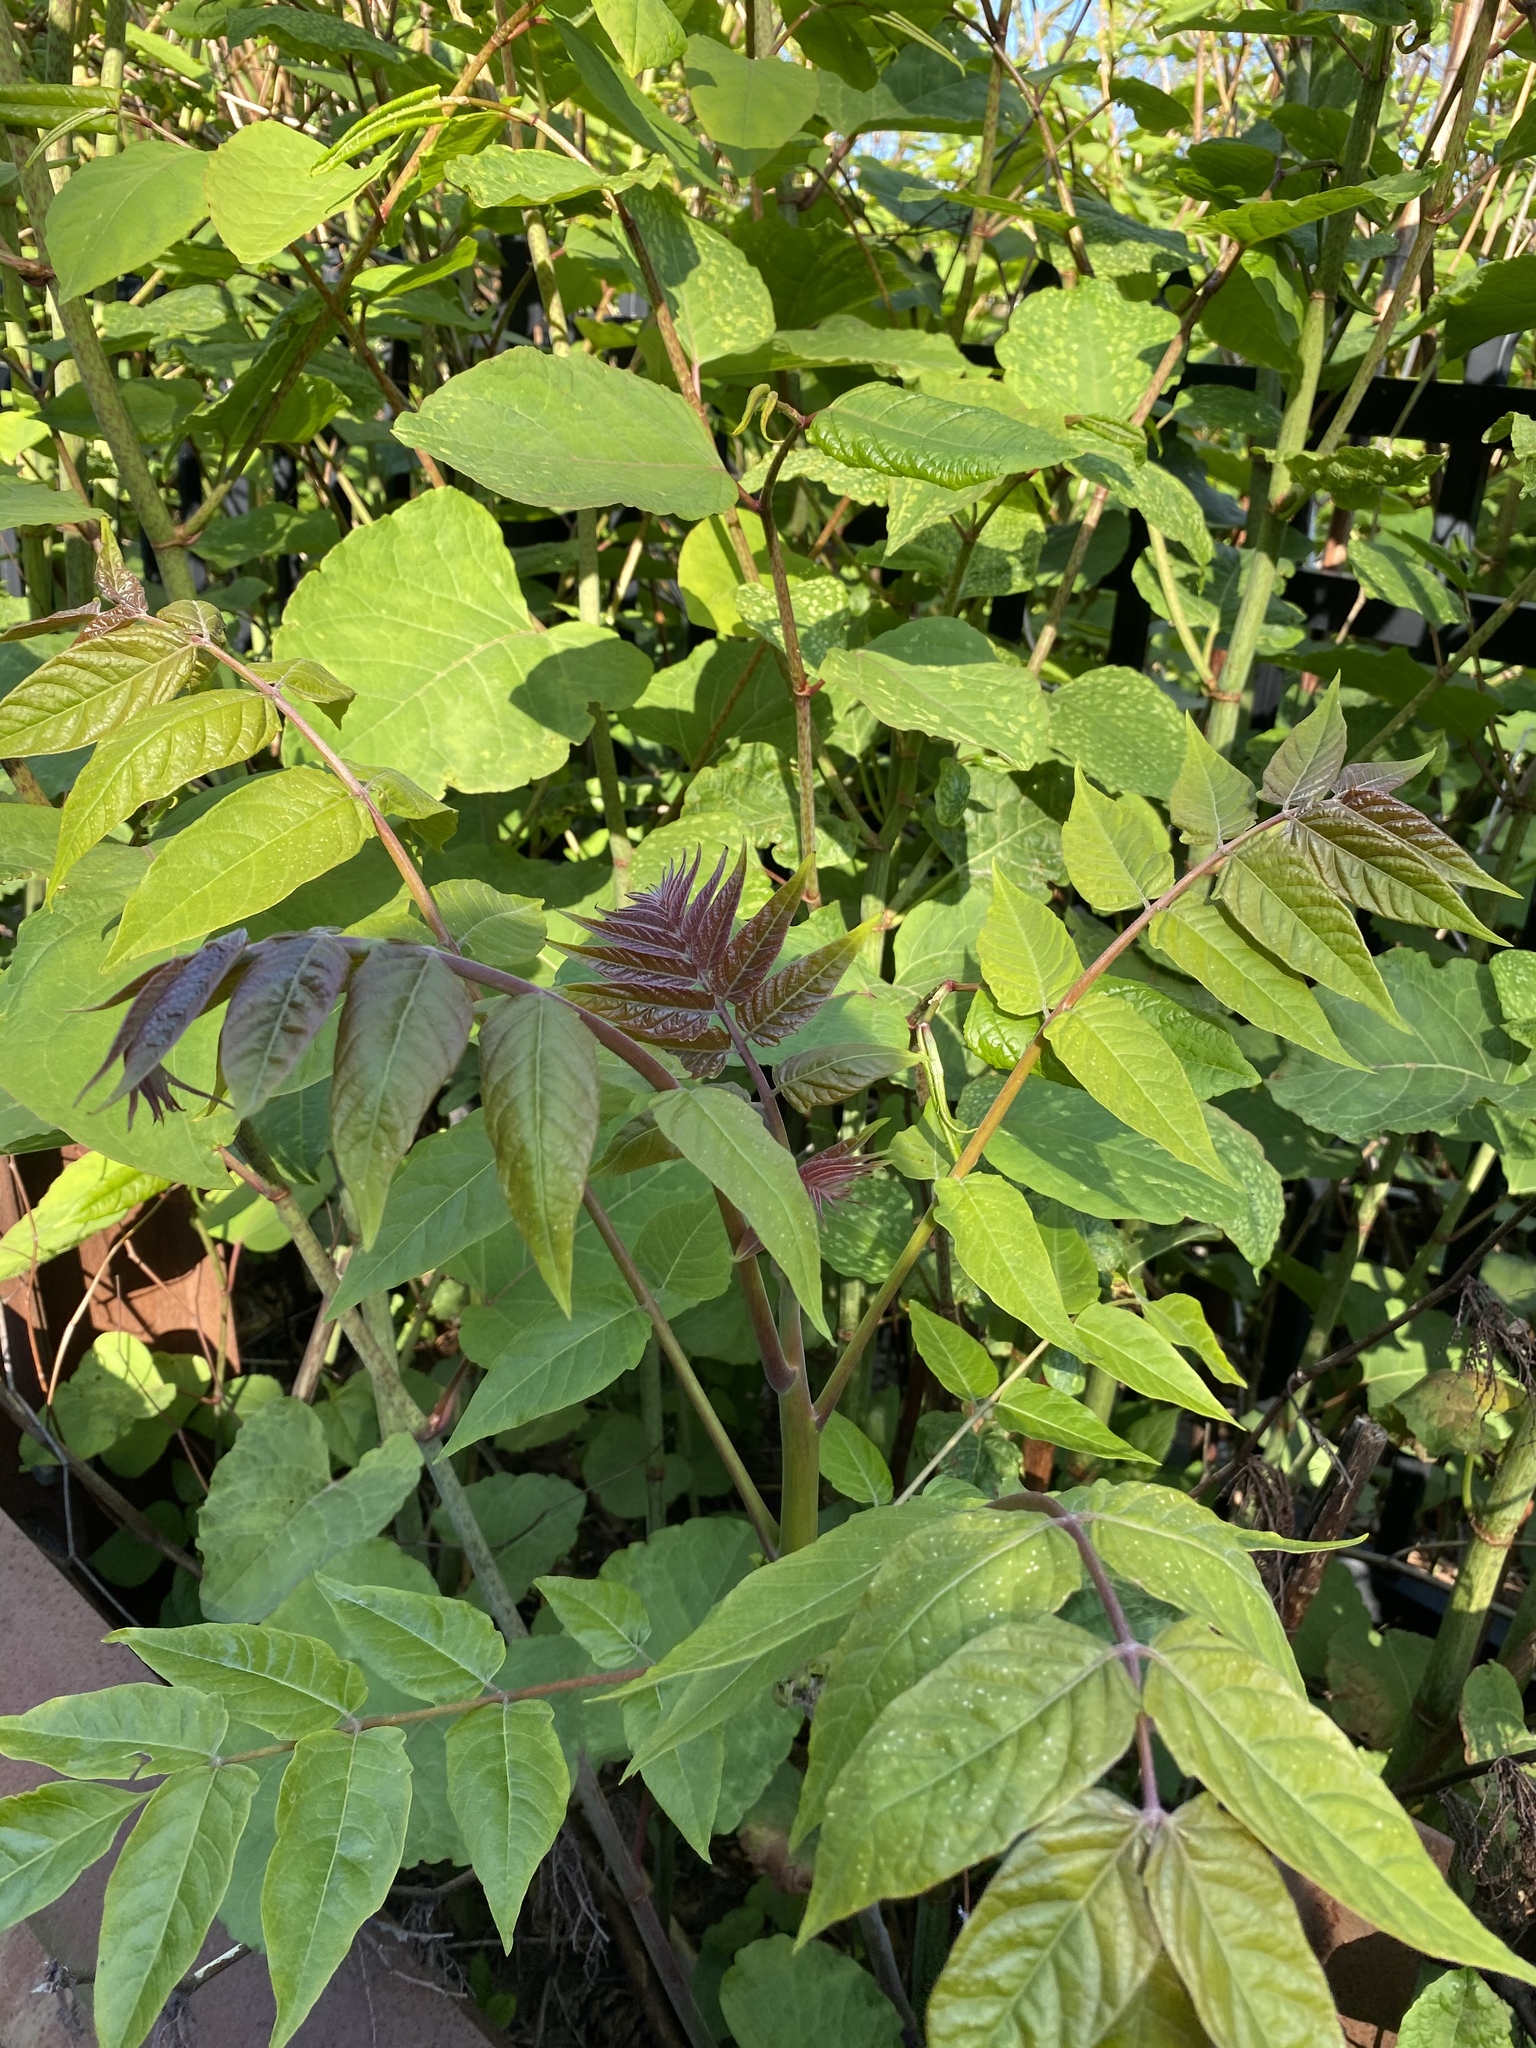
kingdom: Plantae
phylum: Tracheophyta
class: Magnoliopsida
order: Sapindales
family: Simaroubaceae
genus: Ailanthus
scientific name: Ailanthus altissima
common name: Tree-of-heaven
